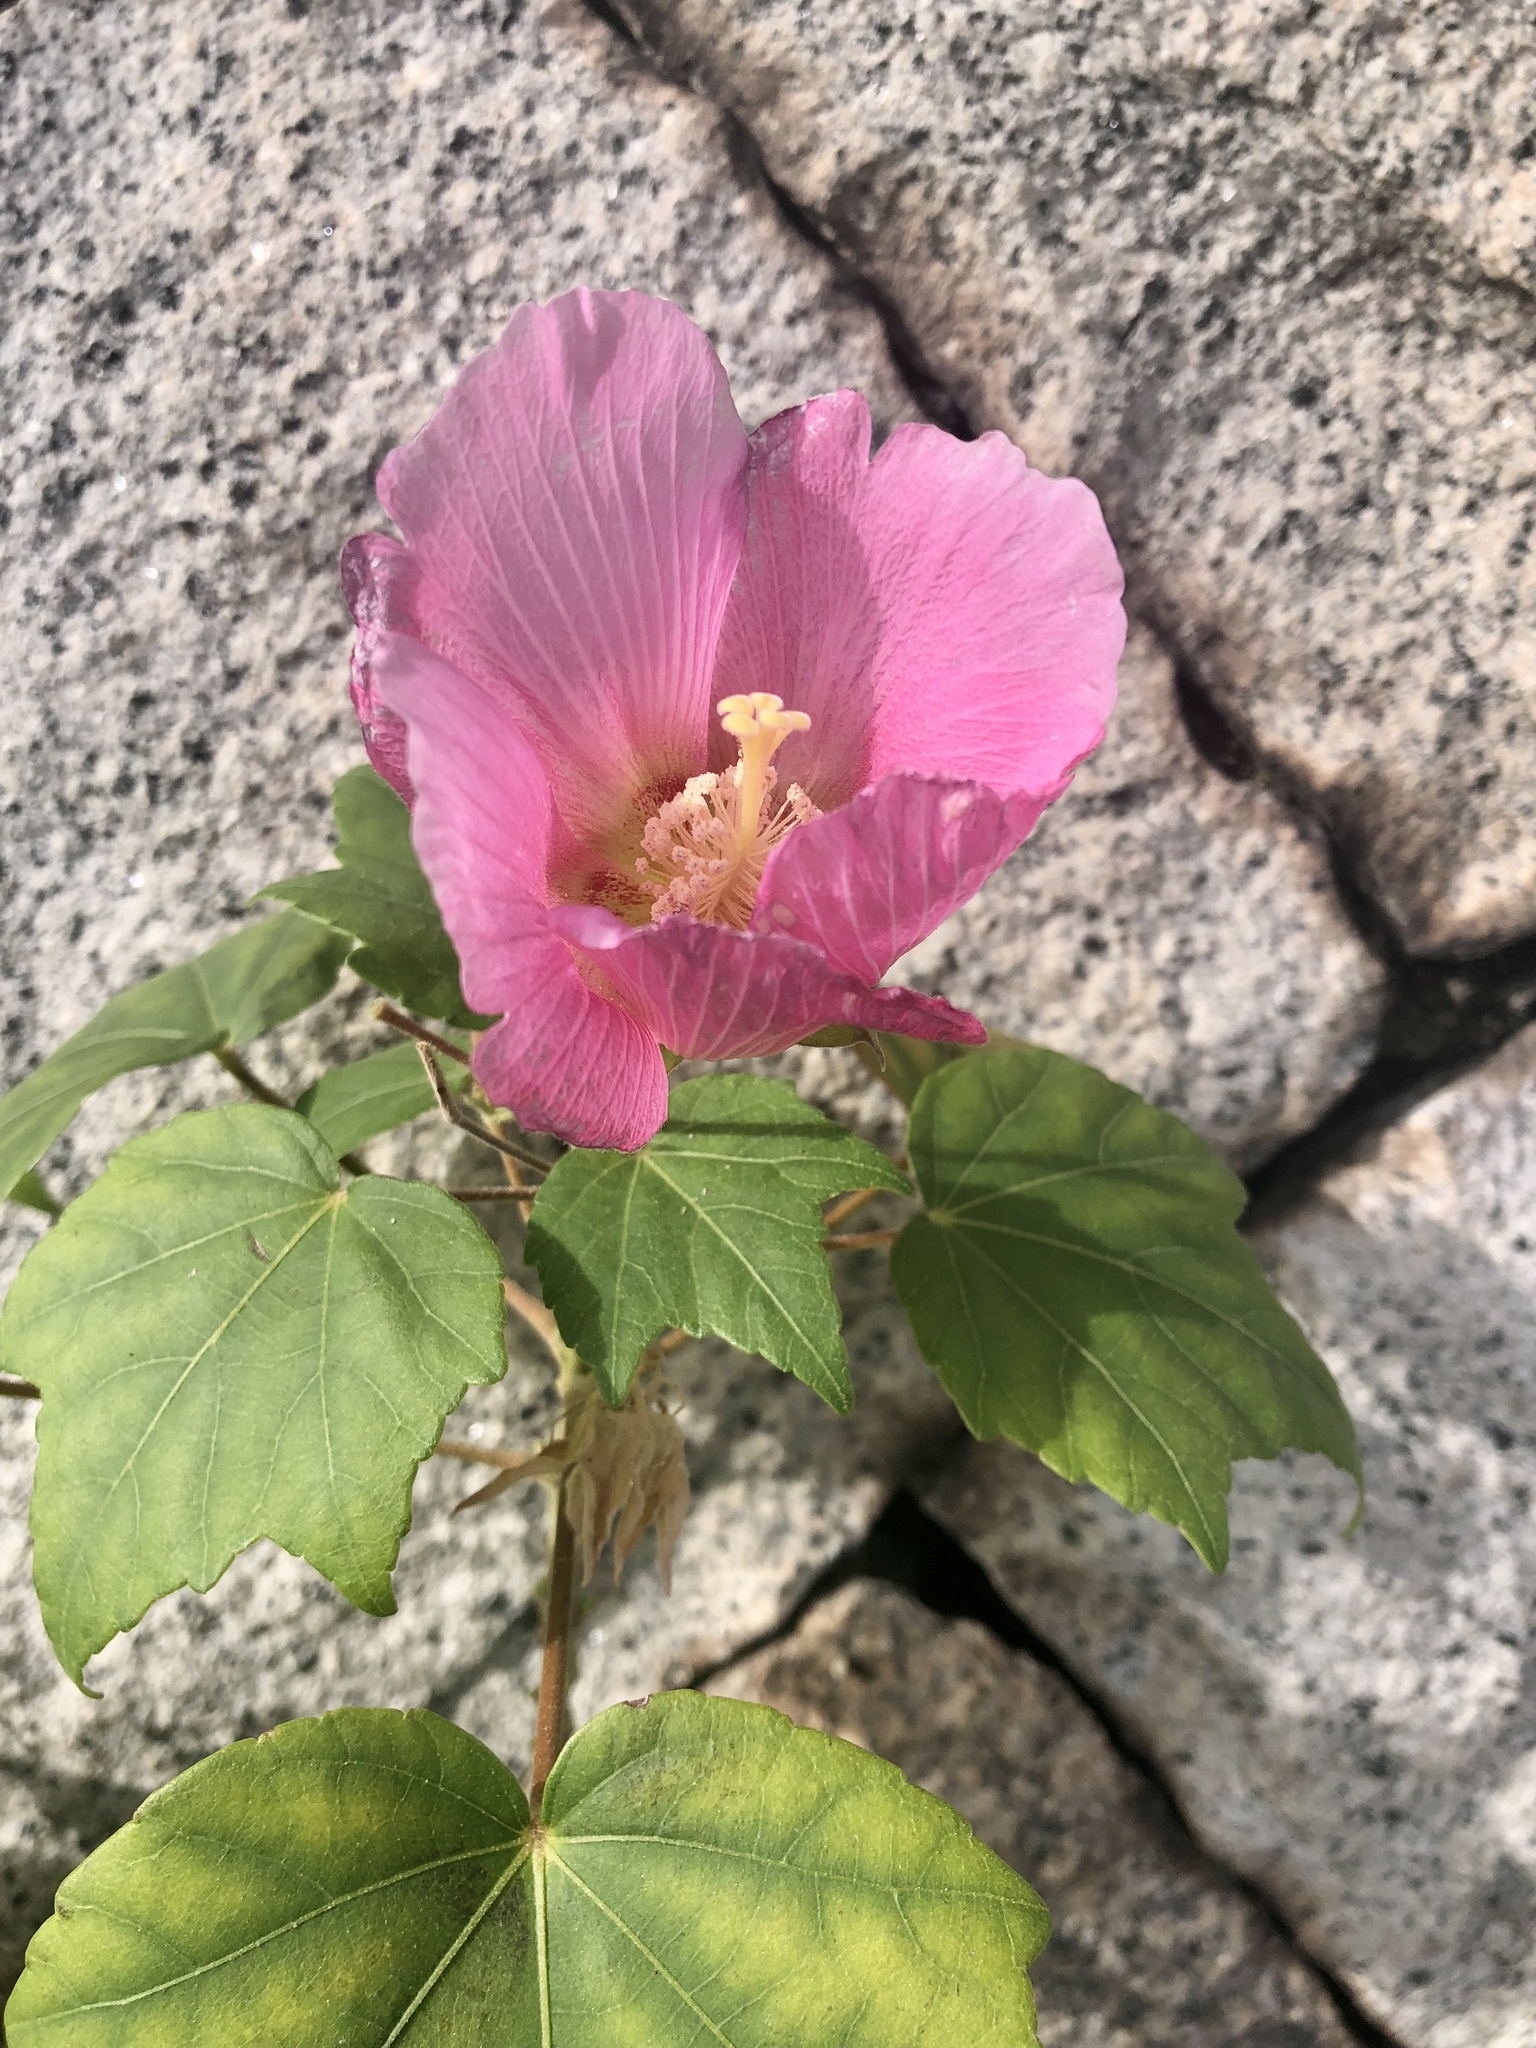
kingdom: Plantae
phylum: Tracheophyta
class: Magnoliopsida
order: Malvales
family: Malvaceae
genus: Hibiscus
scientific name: Hibiscus mutabilis
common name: Dixie rosemallow
